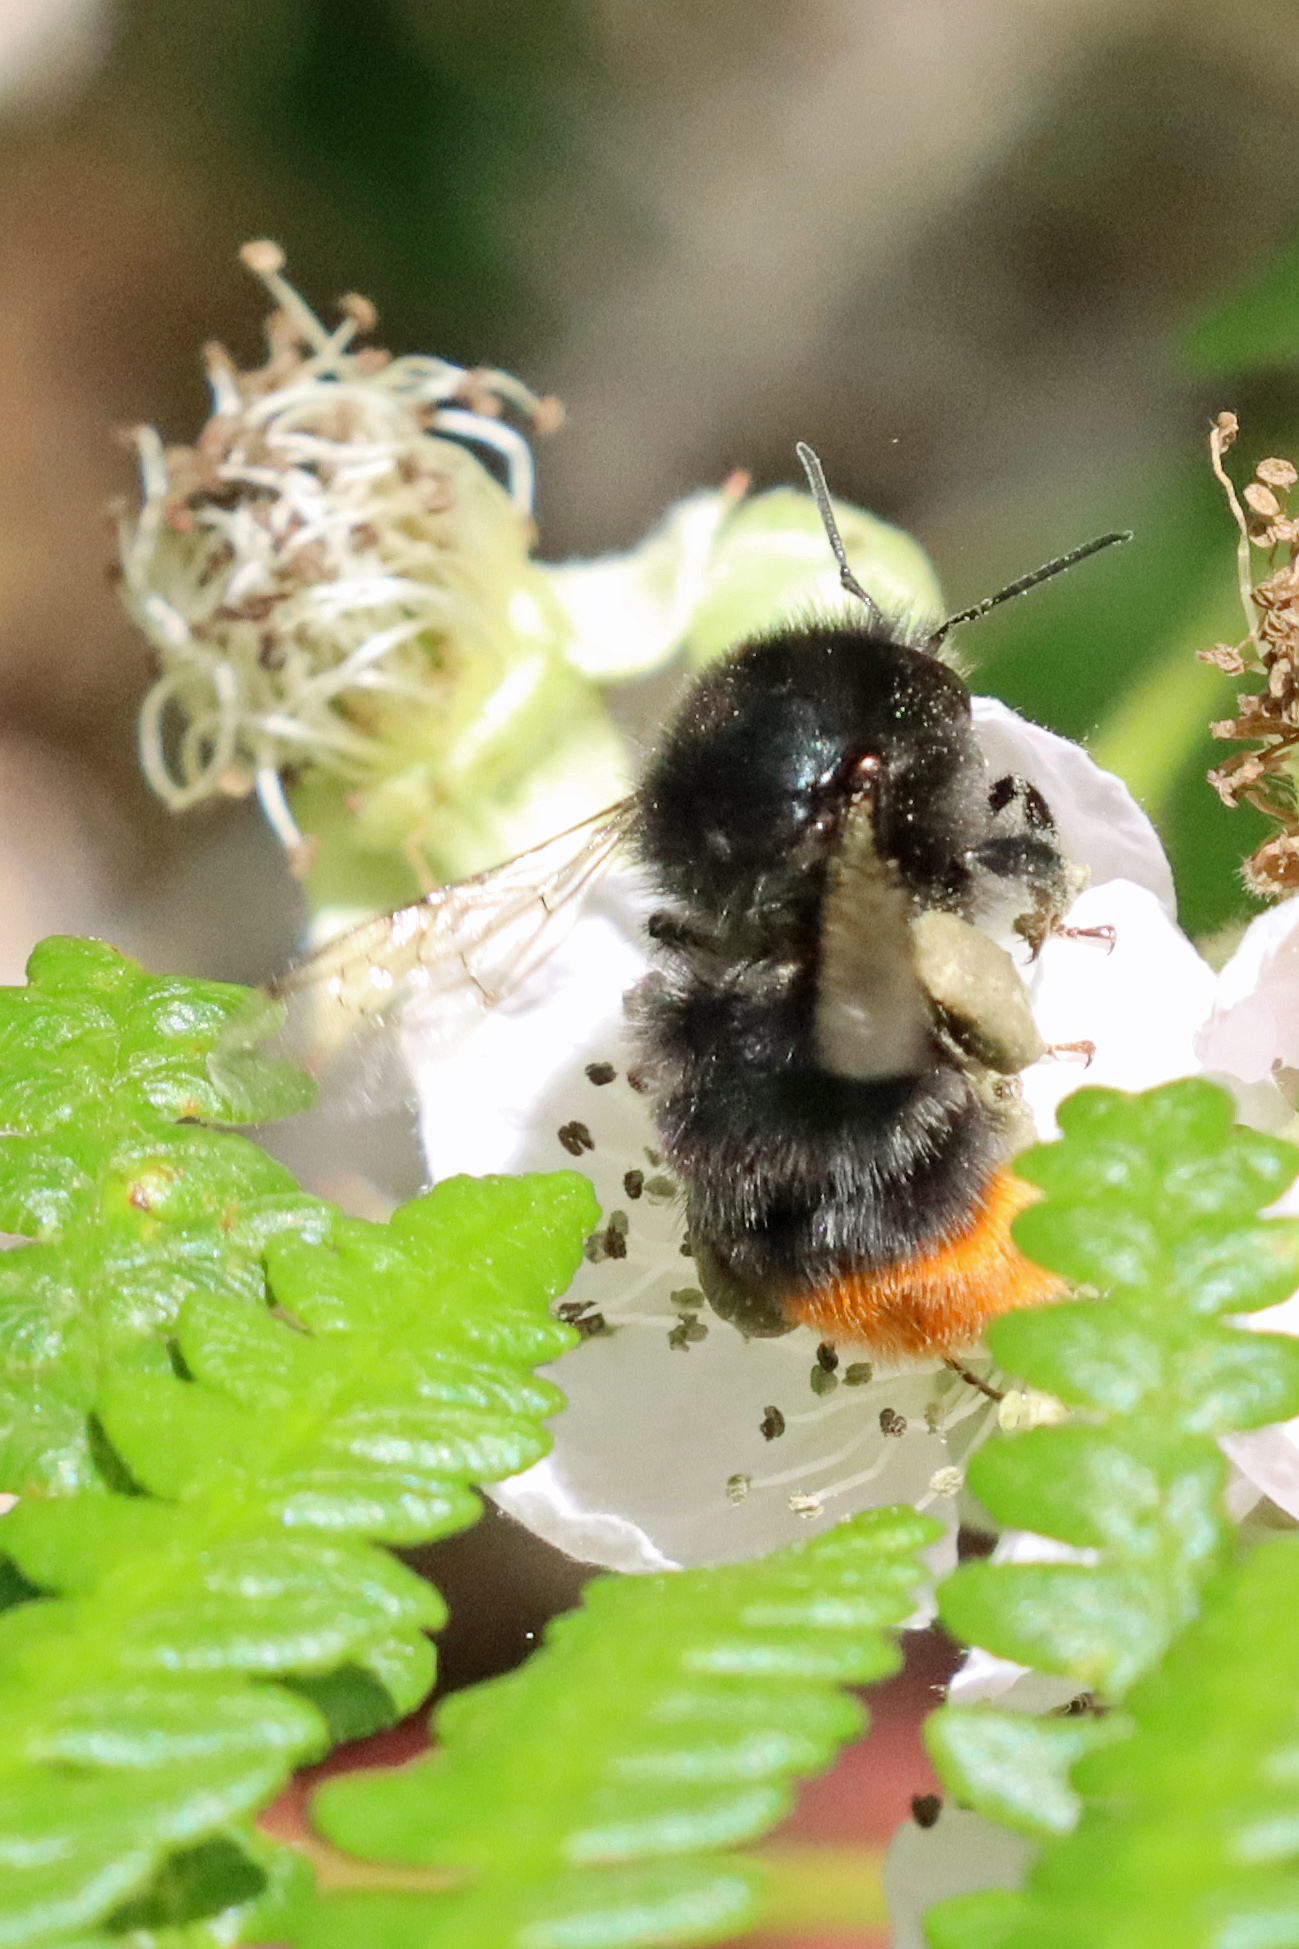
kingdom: Animalia
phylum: Arthropoda
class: Insecta
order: Hymenoptera
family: Apidae
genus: Bombus
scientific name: Bombus lapidarius
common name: Large red-tailed humble-bee
